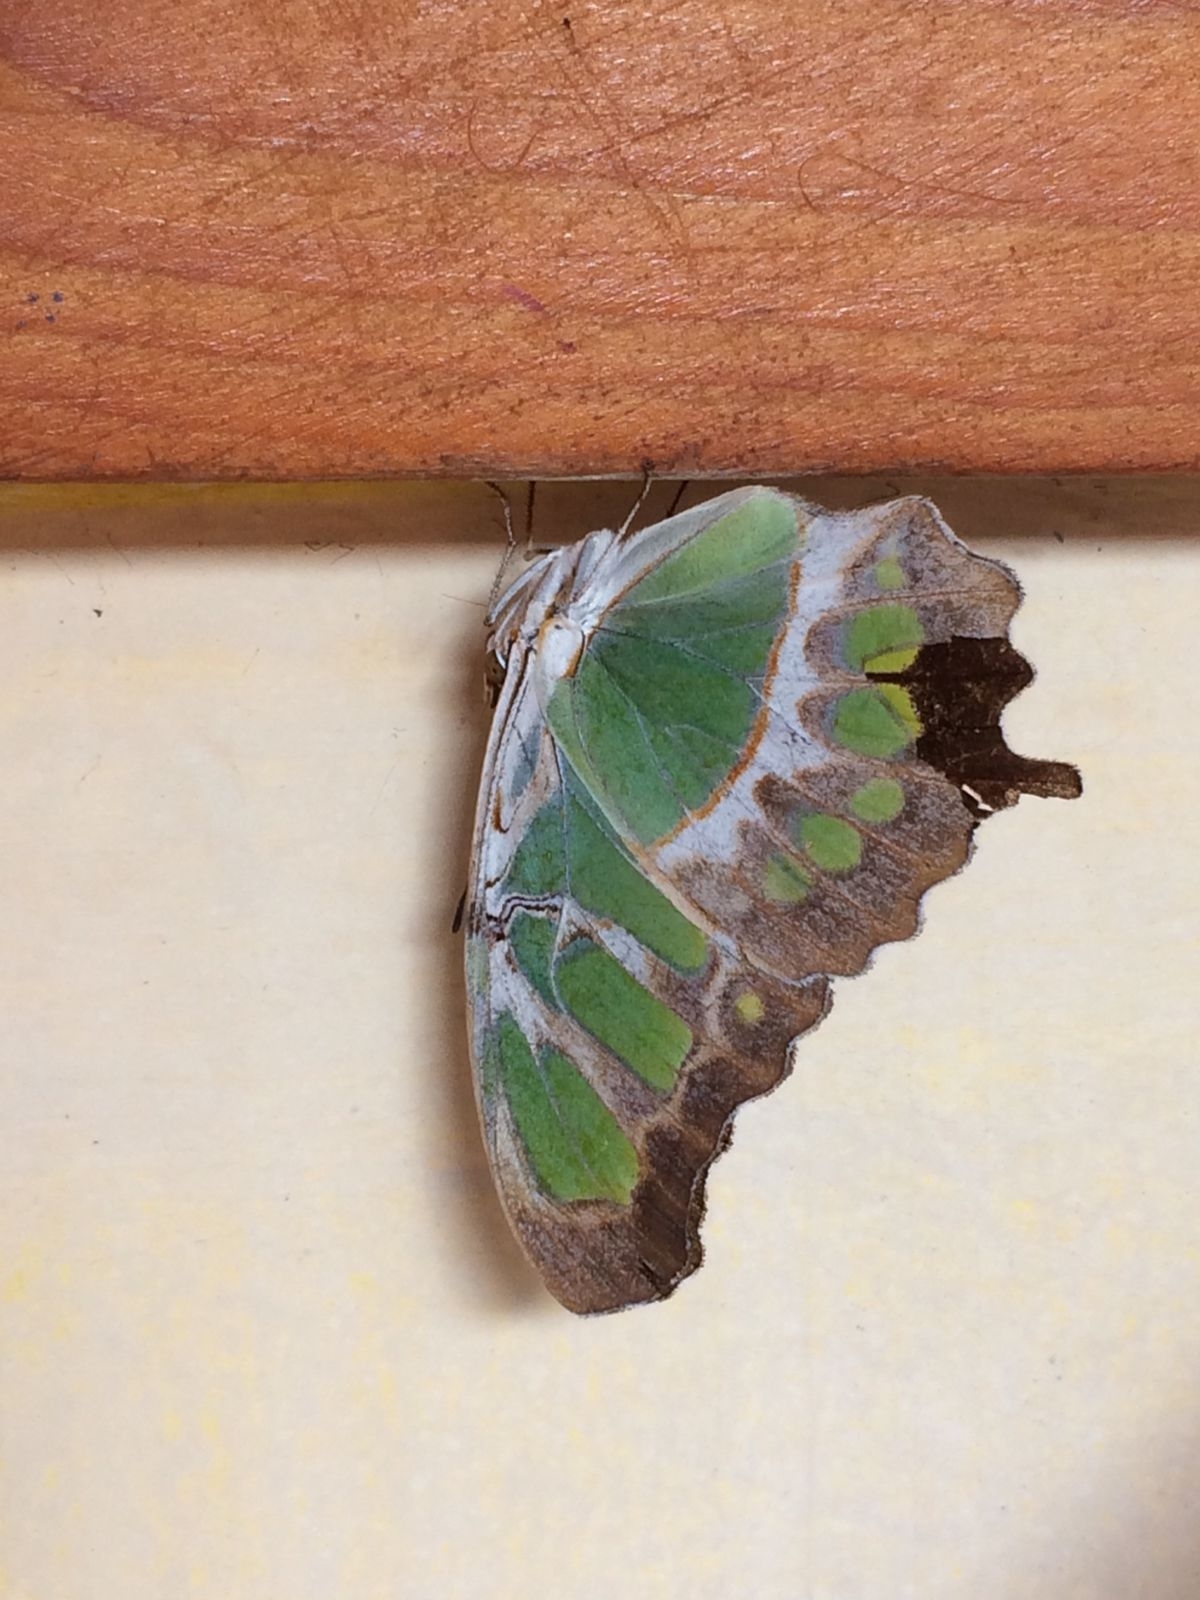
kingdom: Animalia
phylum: Arthropoda
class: Insecta
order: Lepidoptera
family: Nymphalidae
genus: Siproeta
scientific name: Siproeta stelenes
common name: Malachite
